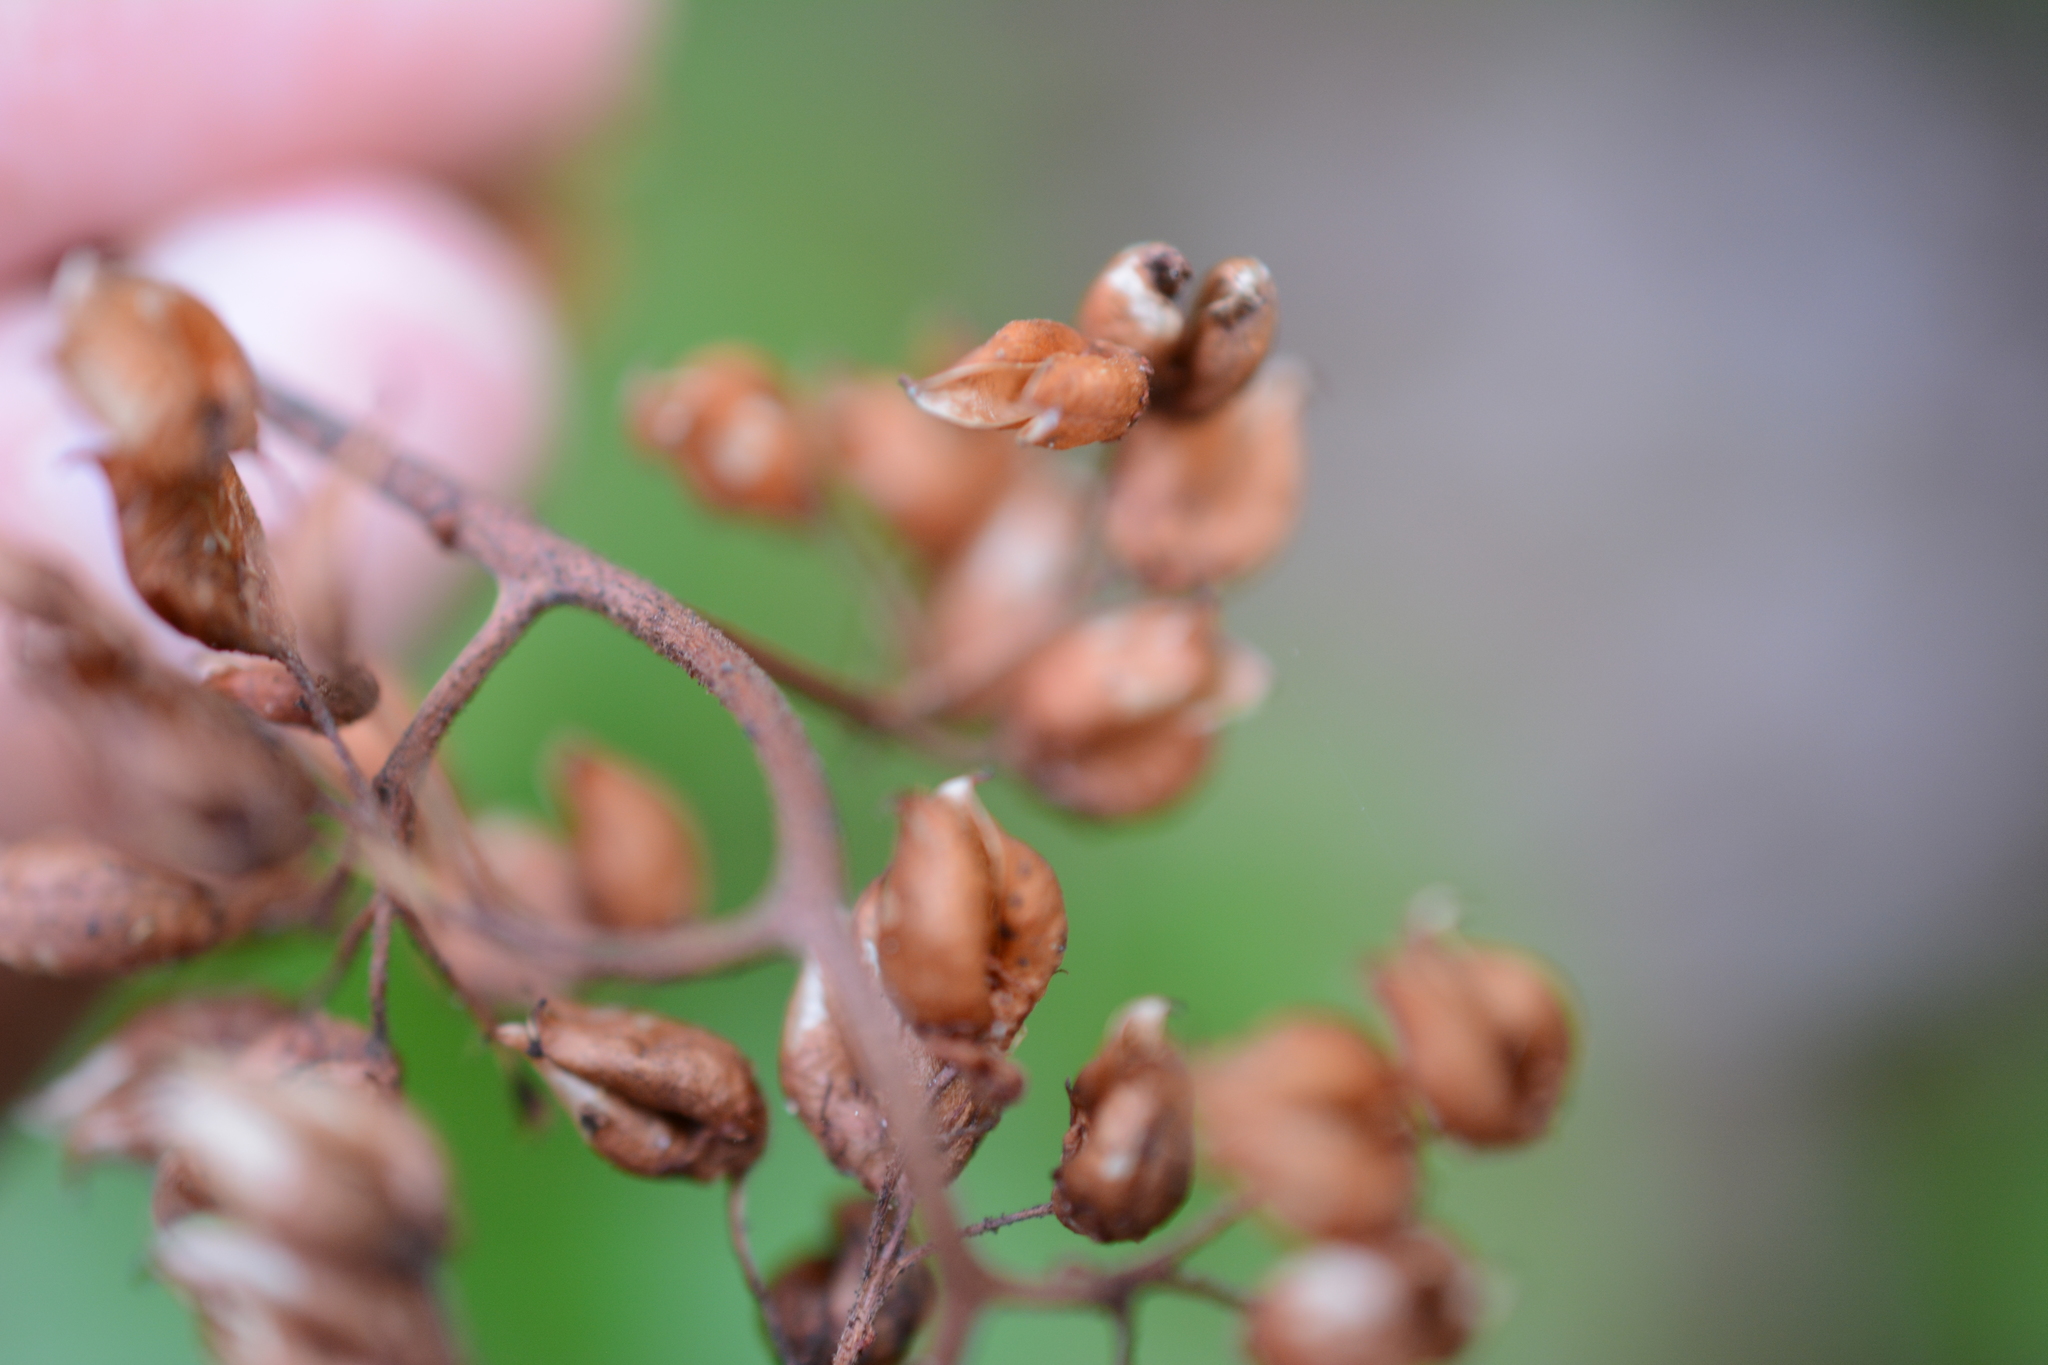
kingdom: Plantae
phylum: Tracheophyta
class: Magnoliopsida
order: Saxifragales
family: Saxifragaceae
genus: Leptarrhena
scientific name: Leptarrhena pyrolifolia
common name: Leatherleaf-saxifrage
